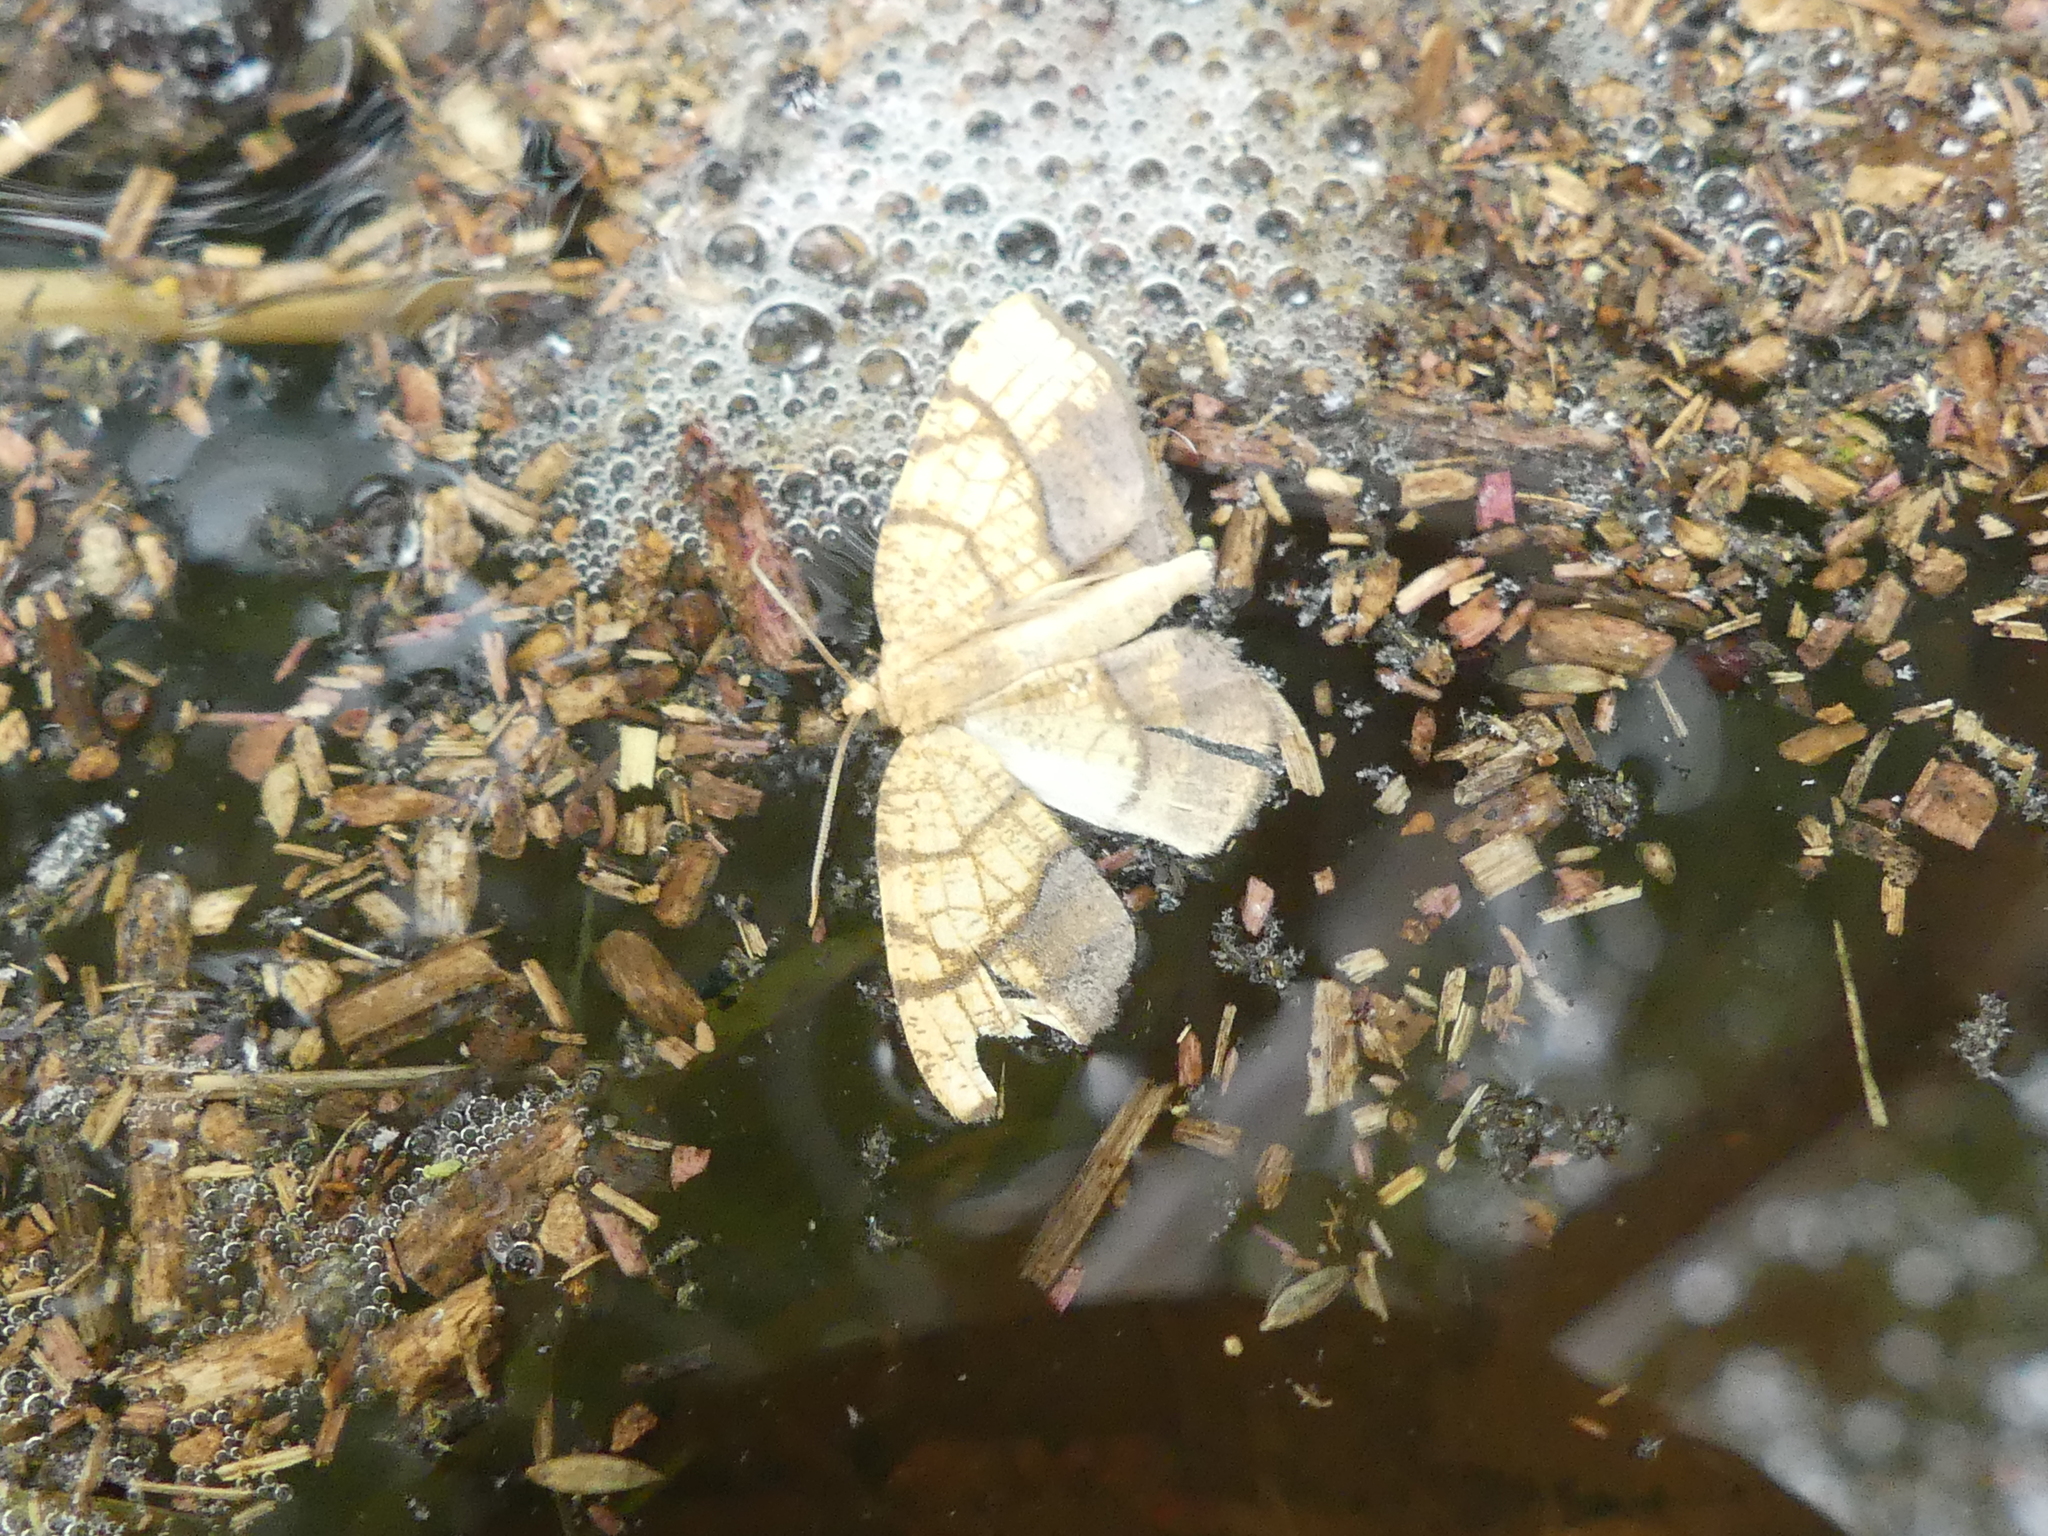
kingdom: Animalia
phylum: Arthropoda
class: Insecta
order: Lepidoptera
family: Geometridae
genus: Nematocampa
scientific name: Nematocampa resistaria
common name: Horned spanworm moth
